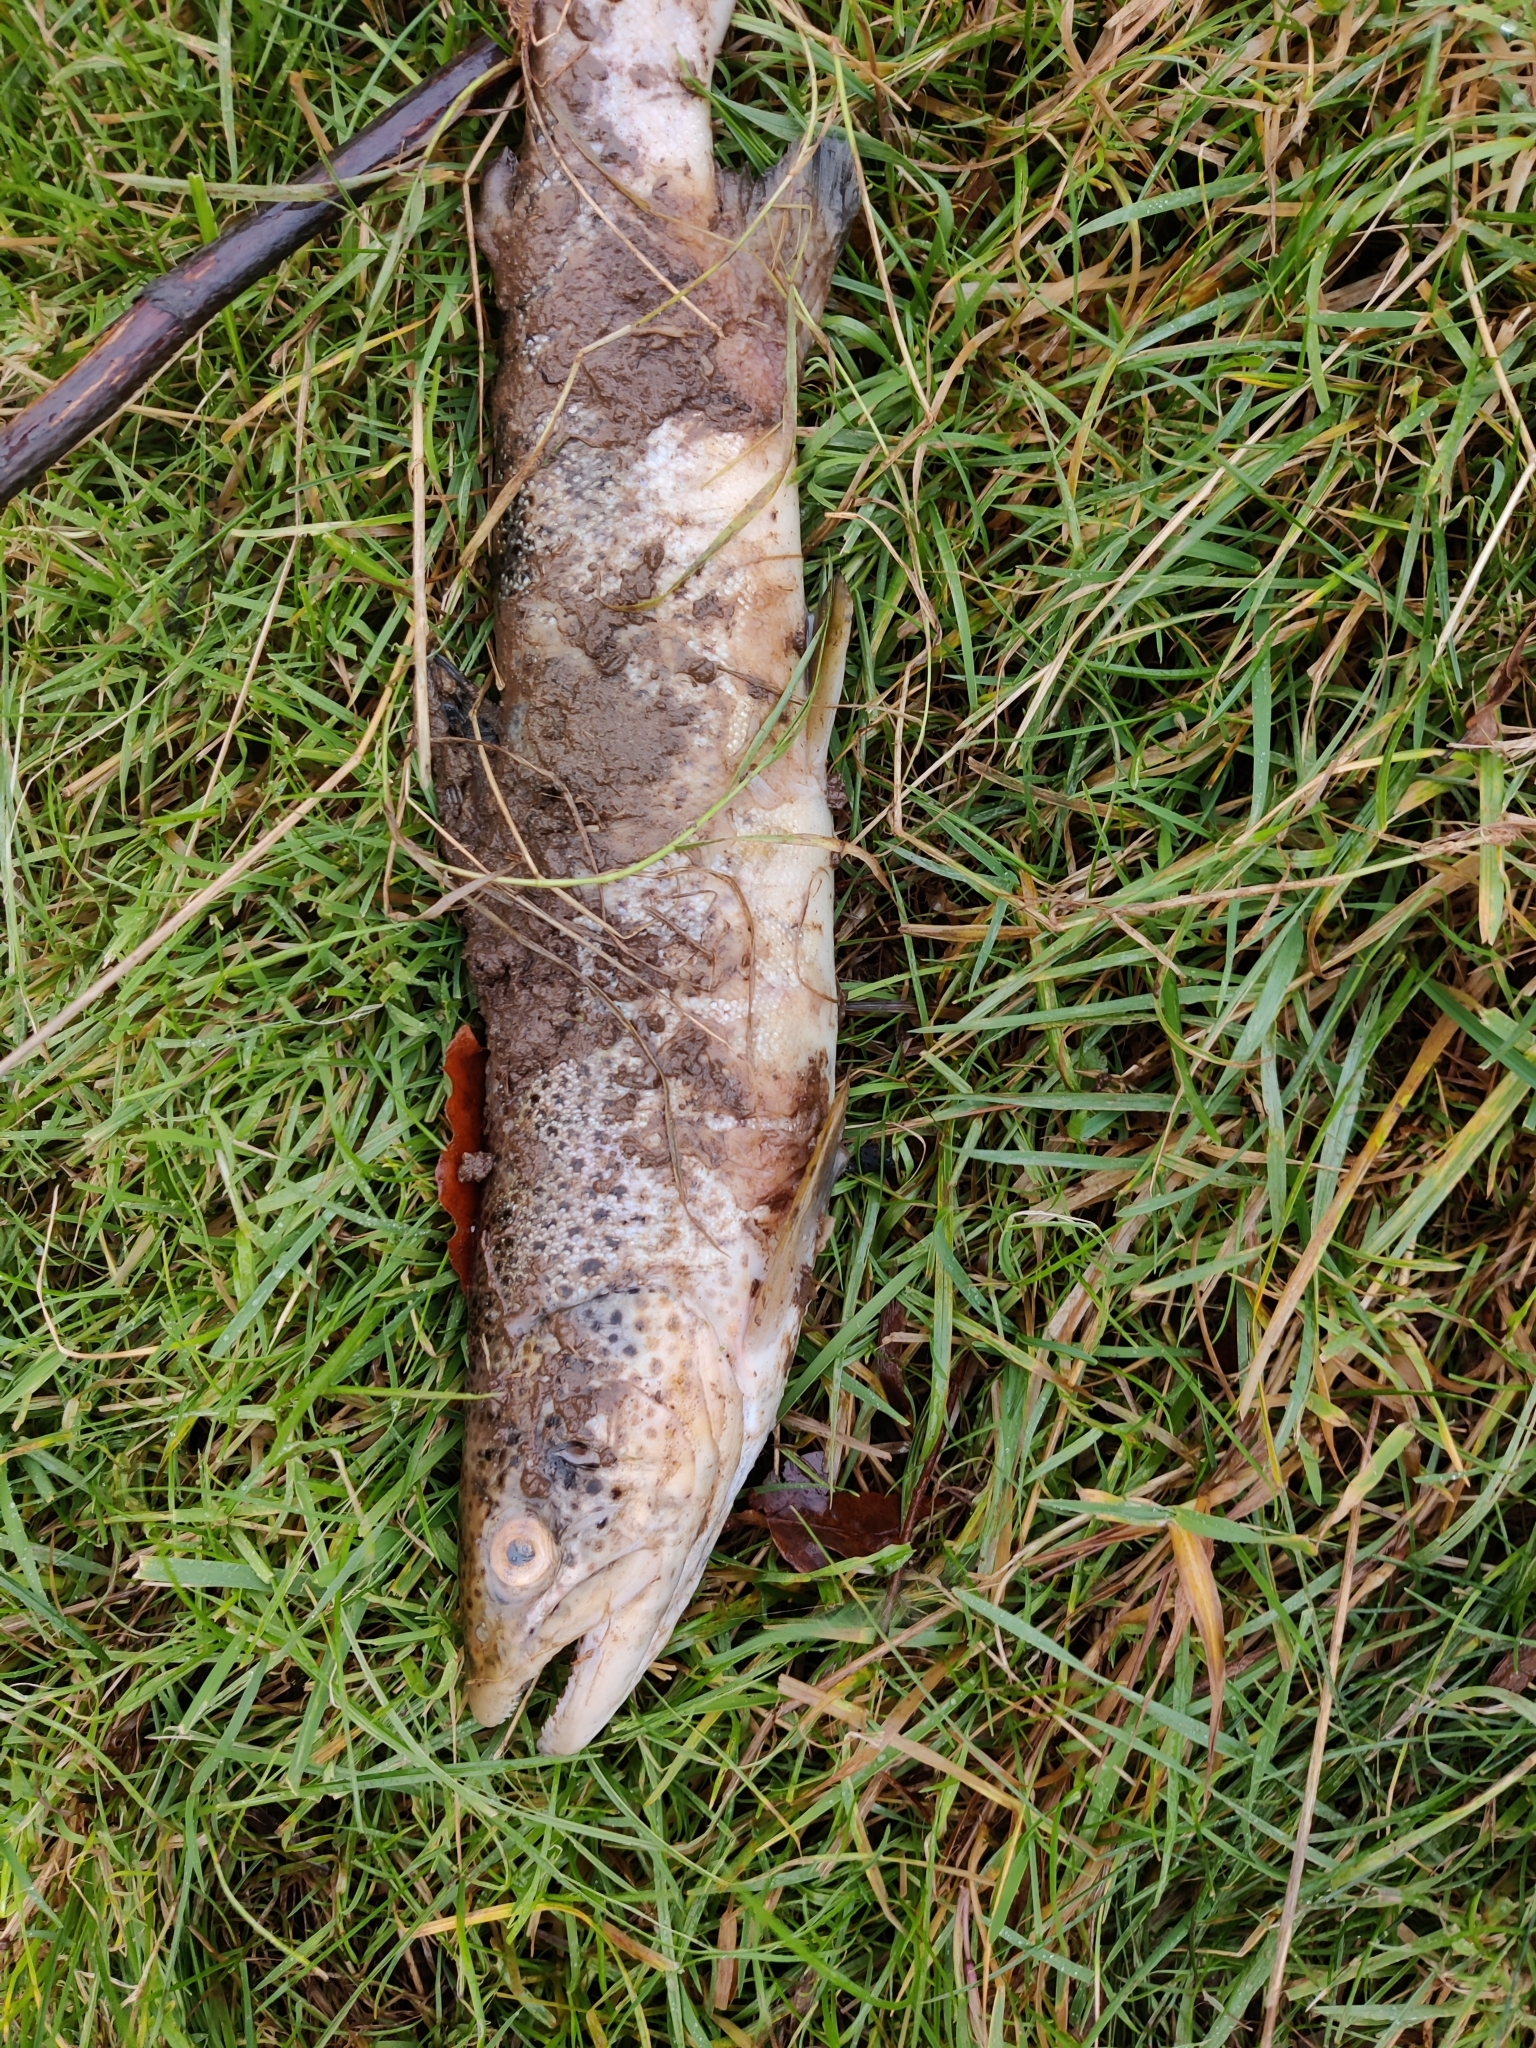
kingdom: Animalia
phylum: Chordata
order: Salmoniformes
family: Salmonidae
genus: Salmo
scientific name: Salmo trutta
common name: Brown trout
